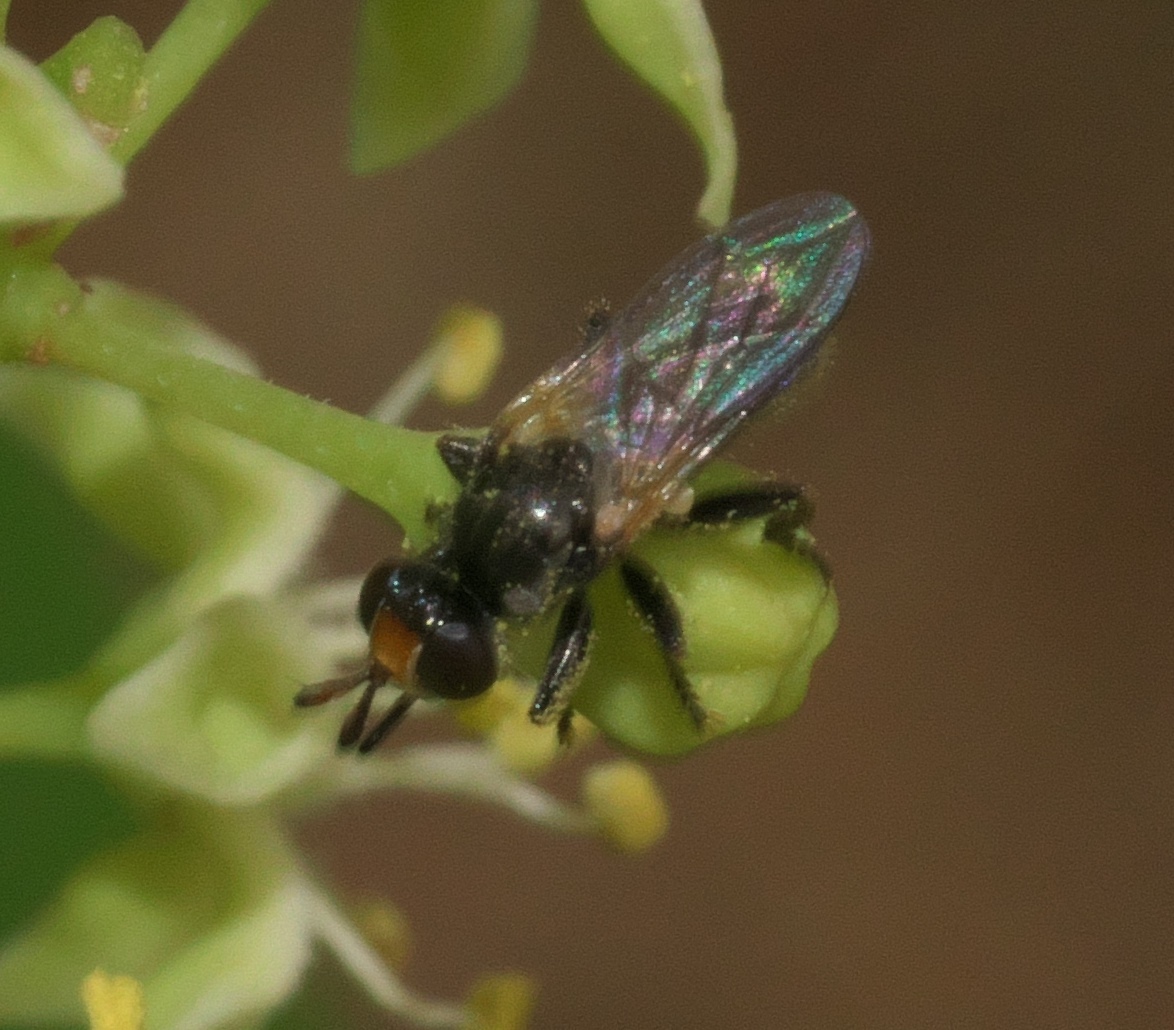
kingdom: Animalia
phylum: Arthropoda
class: Insecta
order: Diptera
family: Conopidae
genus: Thecophora
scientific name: Thecophora propinqua
